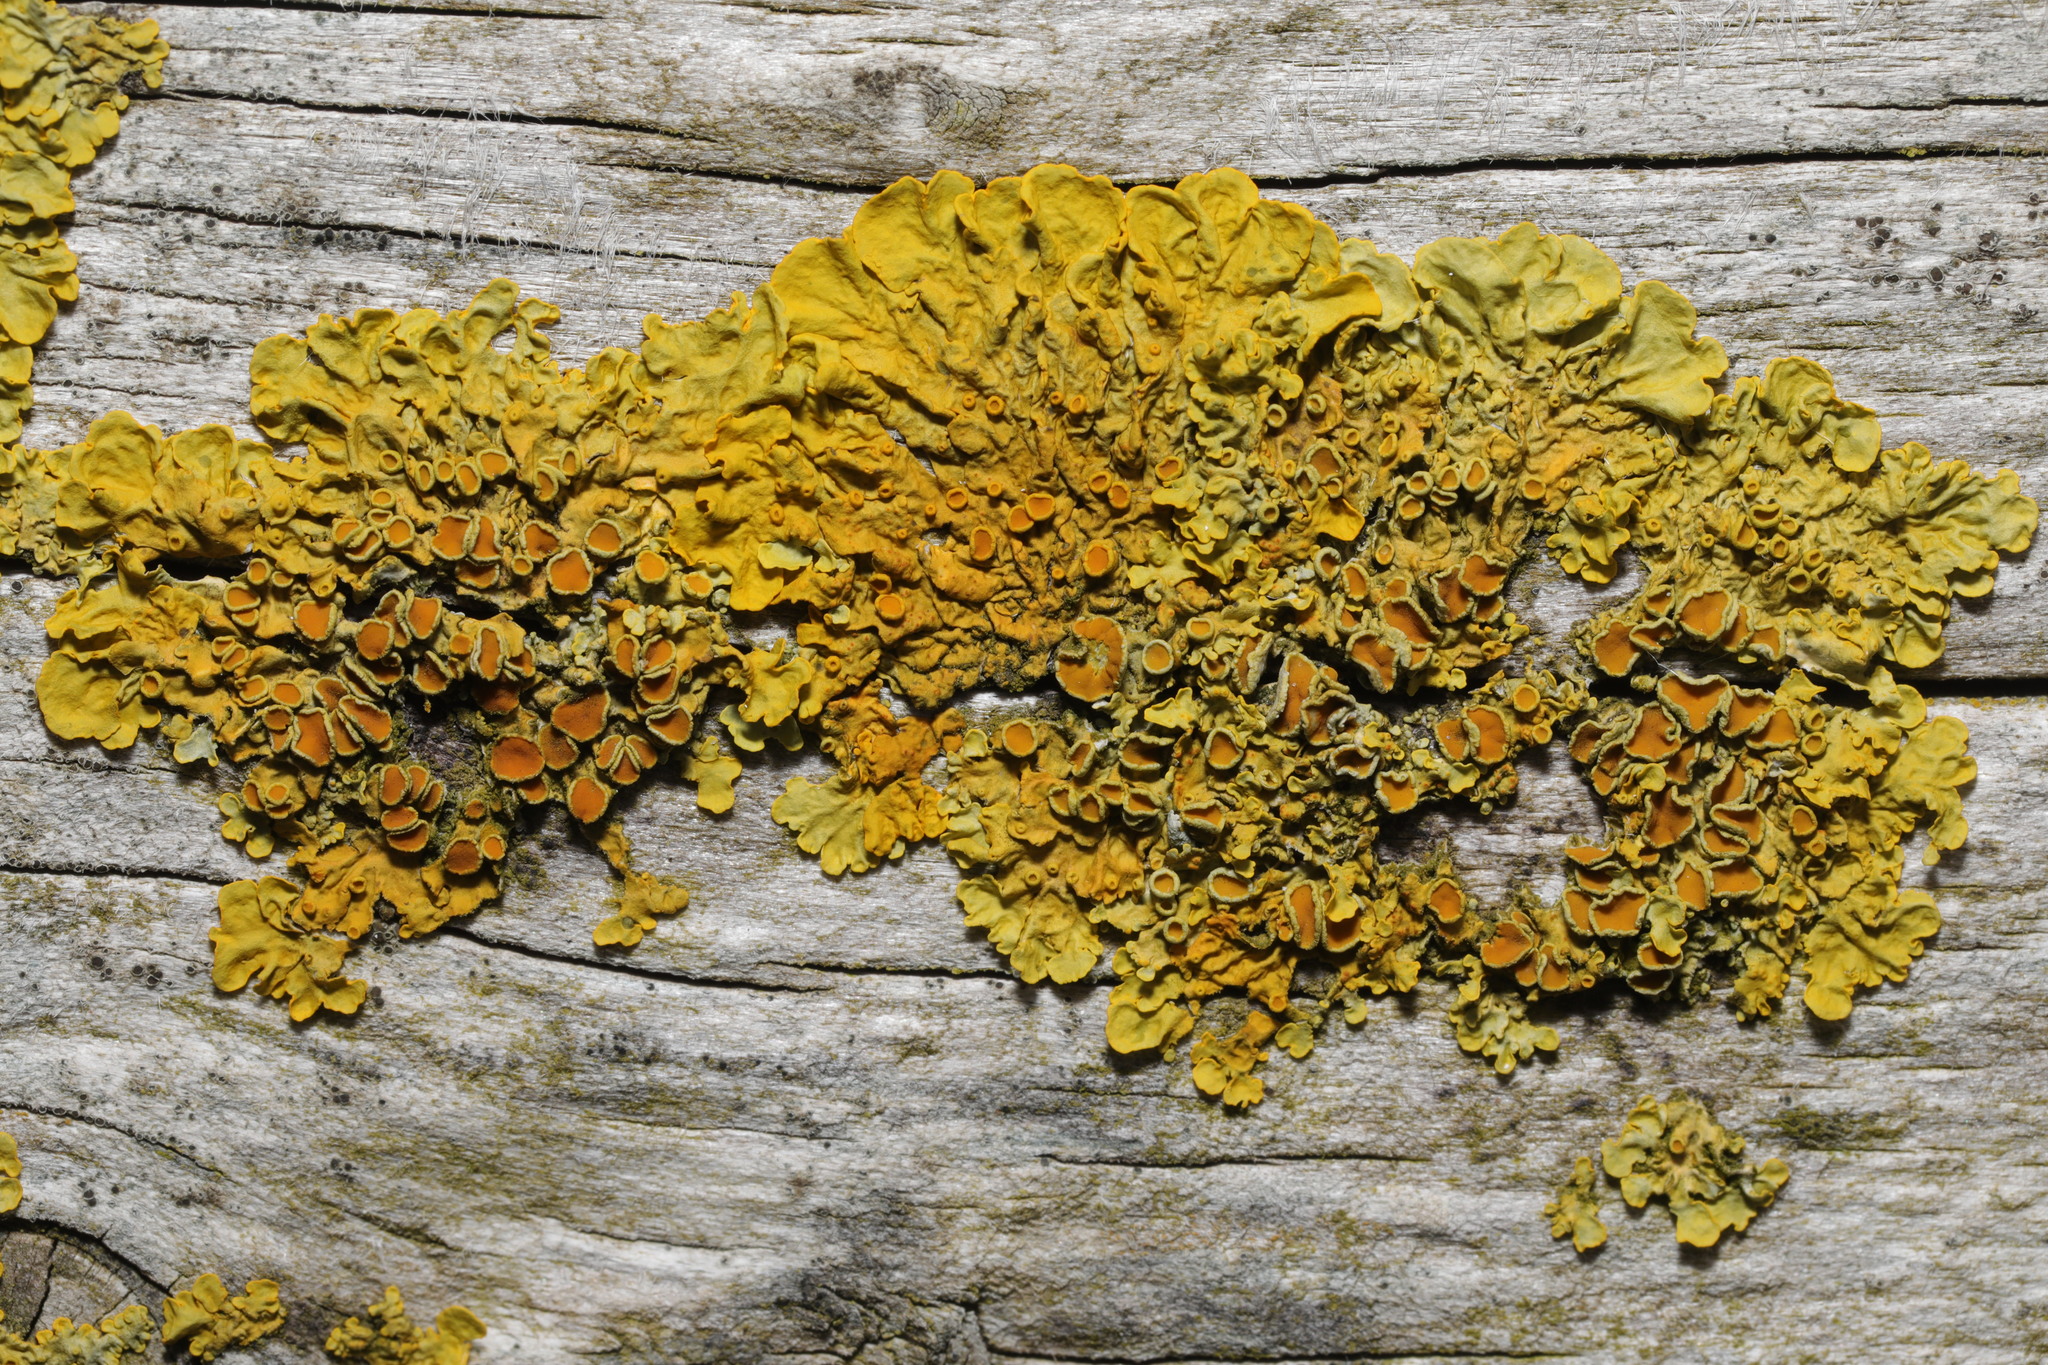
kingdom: Fungi
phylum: Ascomycota
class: Lecanoromycetes
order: Teloschistales
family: Teloschistaceae
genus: Xanthoria
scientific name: Xanthoria parietina
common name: Common orange lichen
